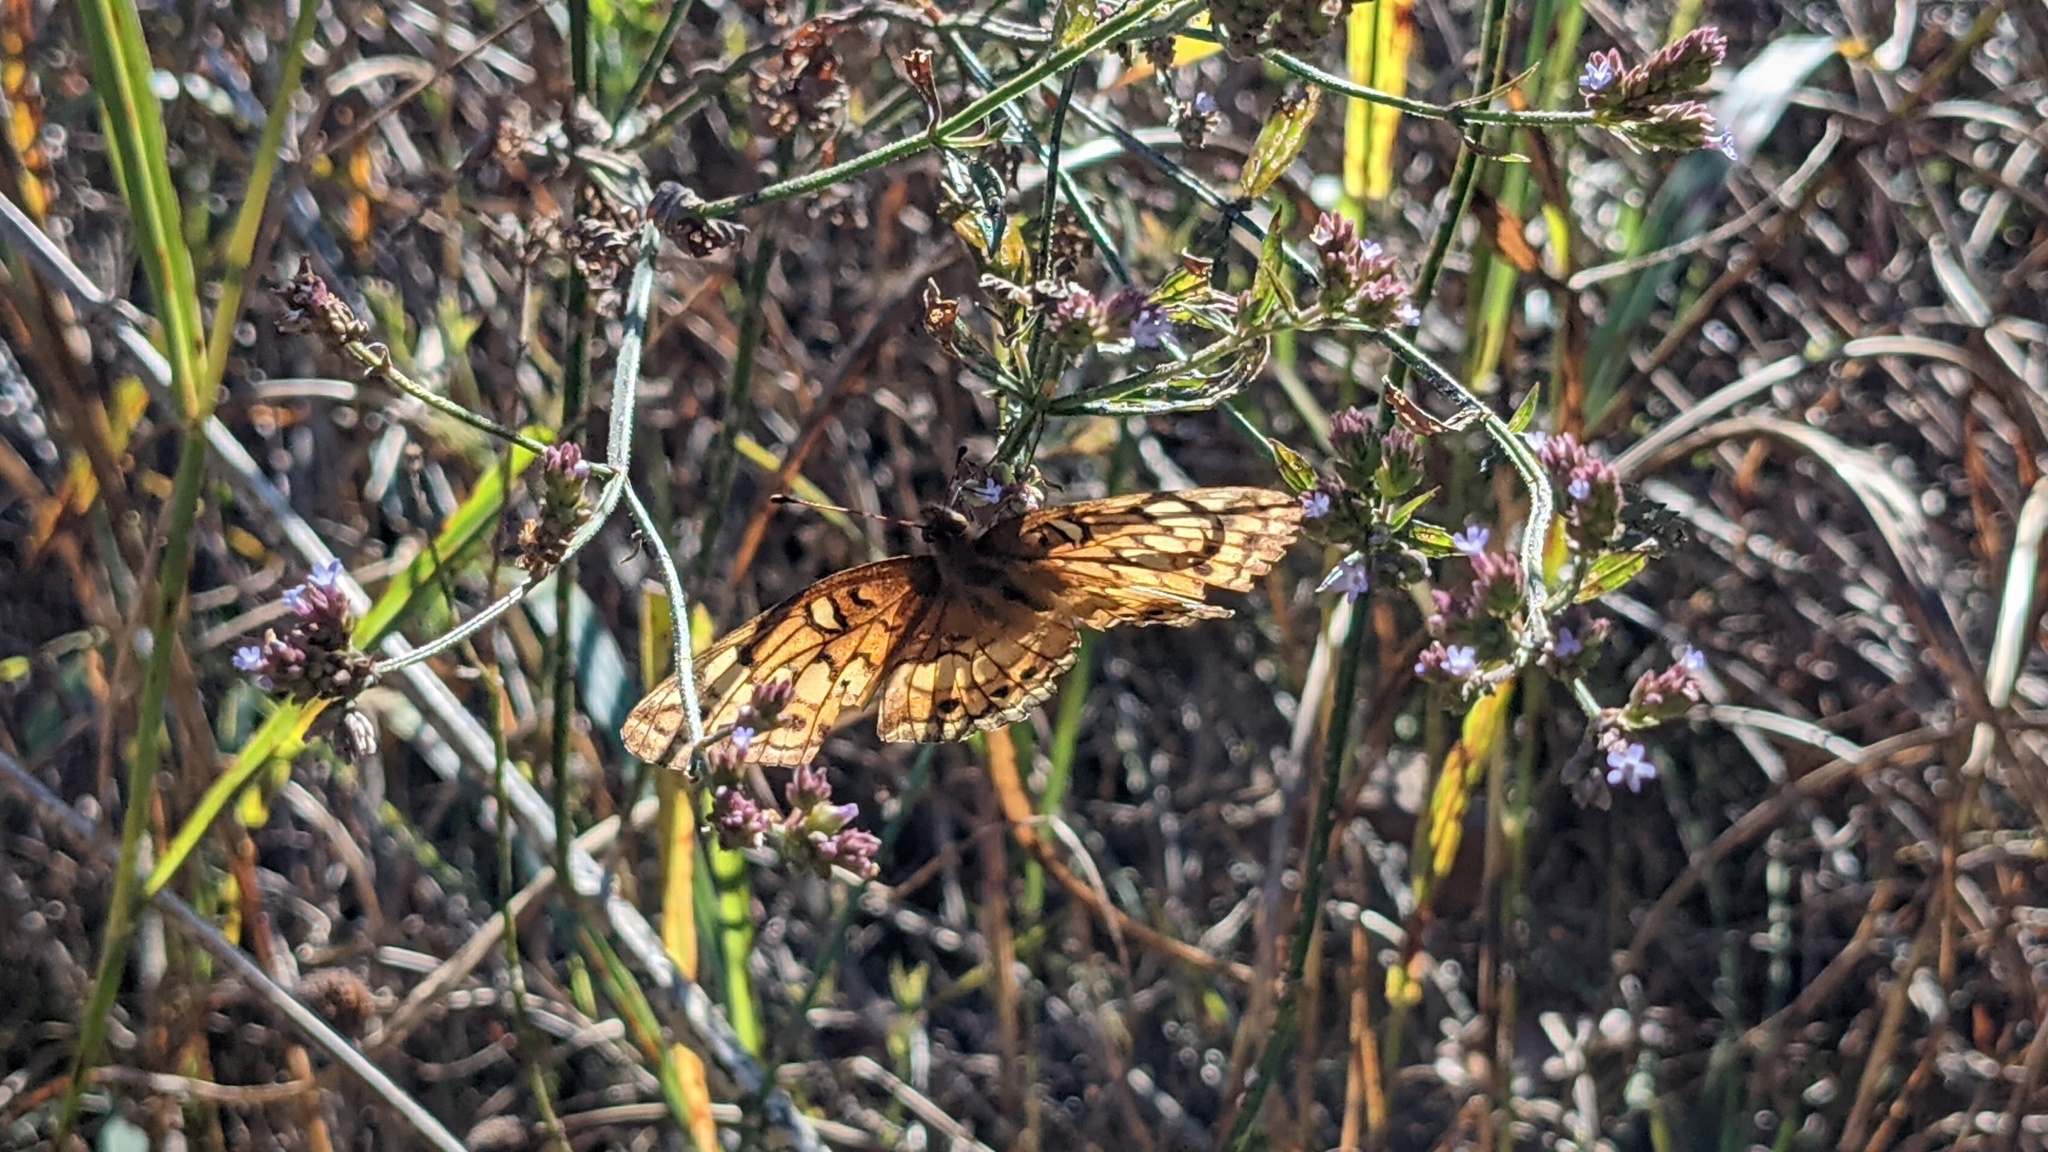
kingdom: Animalia
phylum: Arthropoda
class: Insecta
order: Lepidoptera
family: Nymphalidae
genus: Euptoieta
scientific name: Euptoieta claudia
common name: Variegated fritillary
